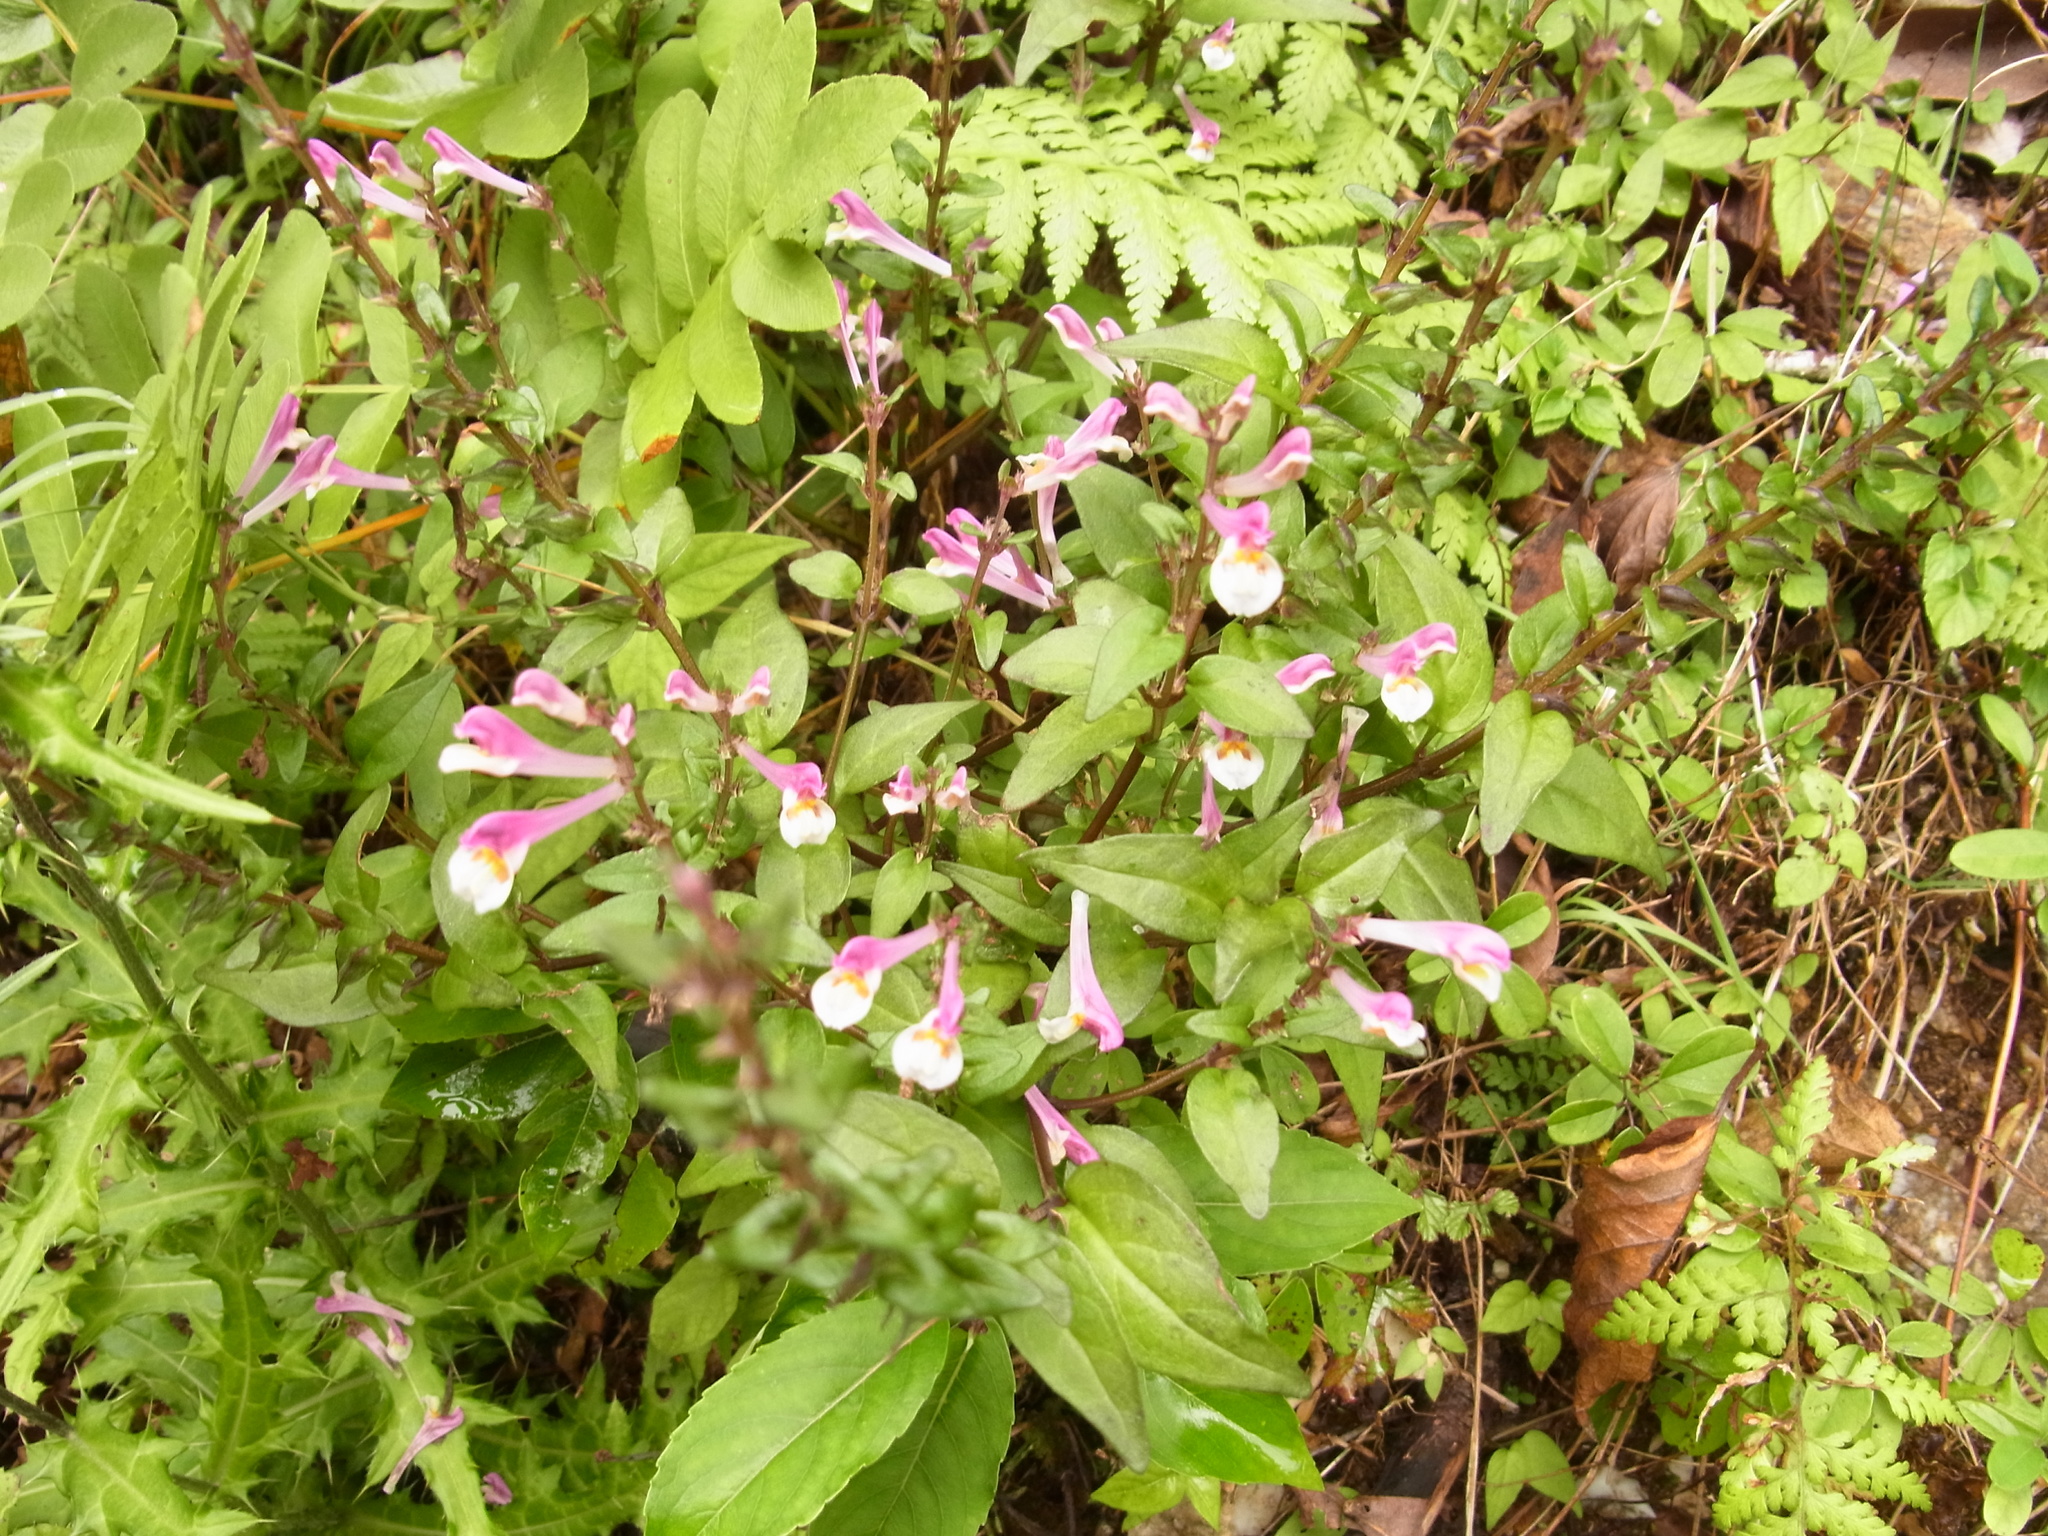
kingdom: Plantae
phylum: Tracheophyta
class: Magnoliopsida
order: Lamiales
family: Orobanchaceae
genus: Melampyrum
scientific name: Melampyrum laxum
